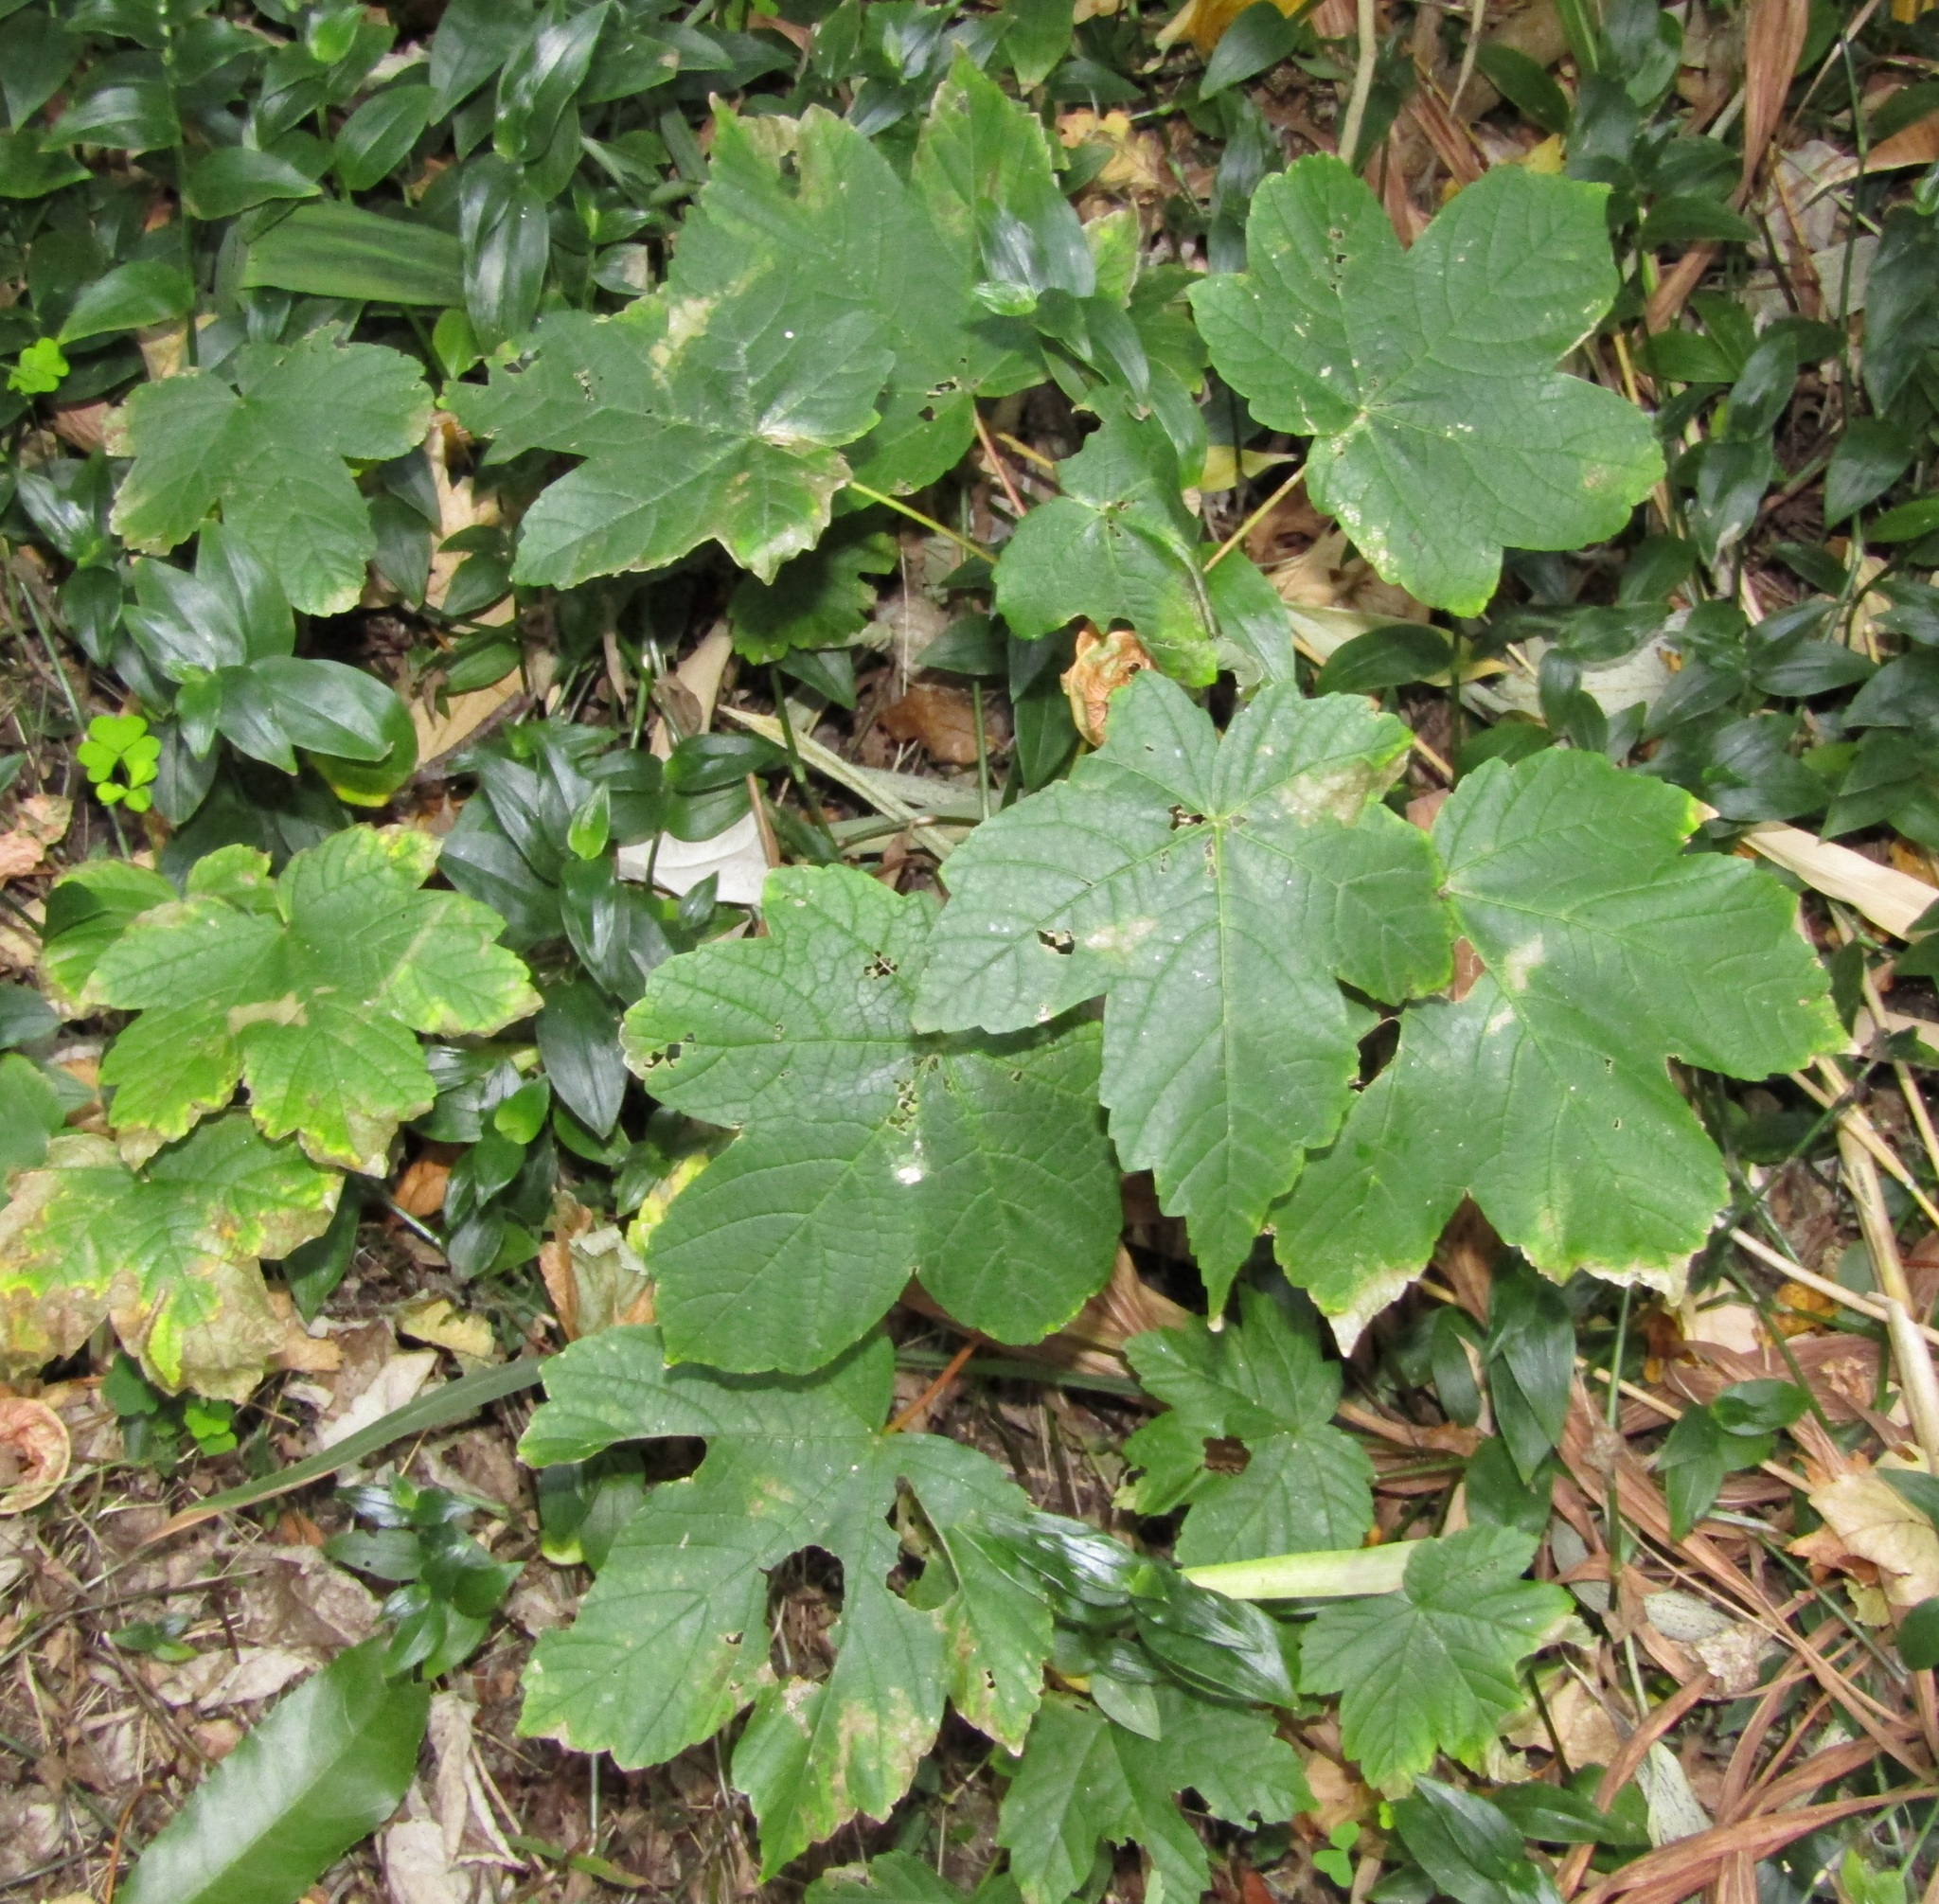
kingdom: Plantae
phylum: Tracheophyta
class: Magnoliopsida
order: Sapindales
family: Sapindaceae
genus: Acer
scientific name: Acer pseudoplatanus
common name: Sycamore
